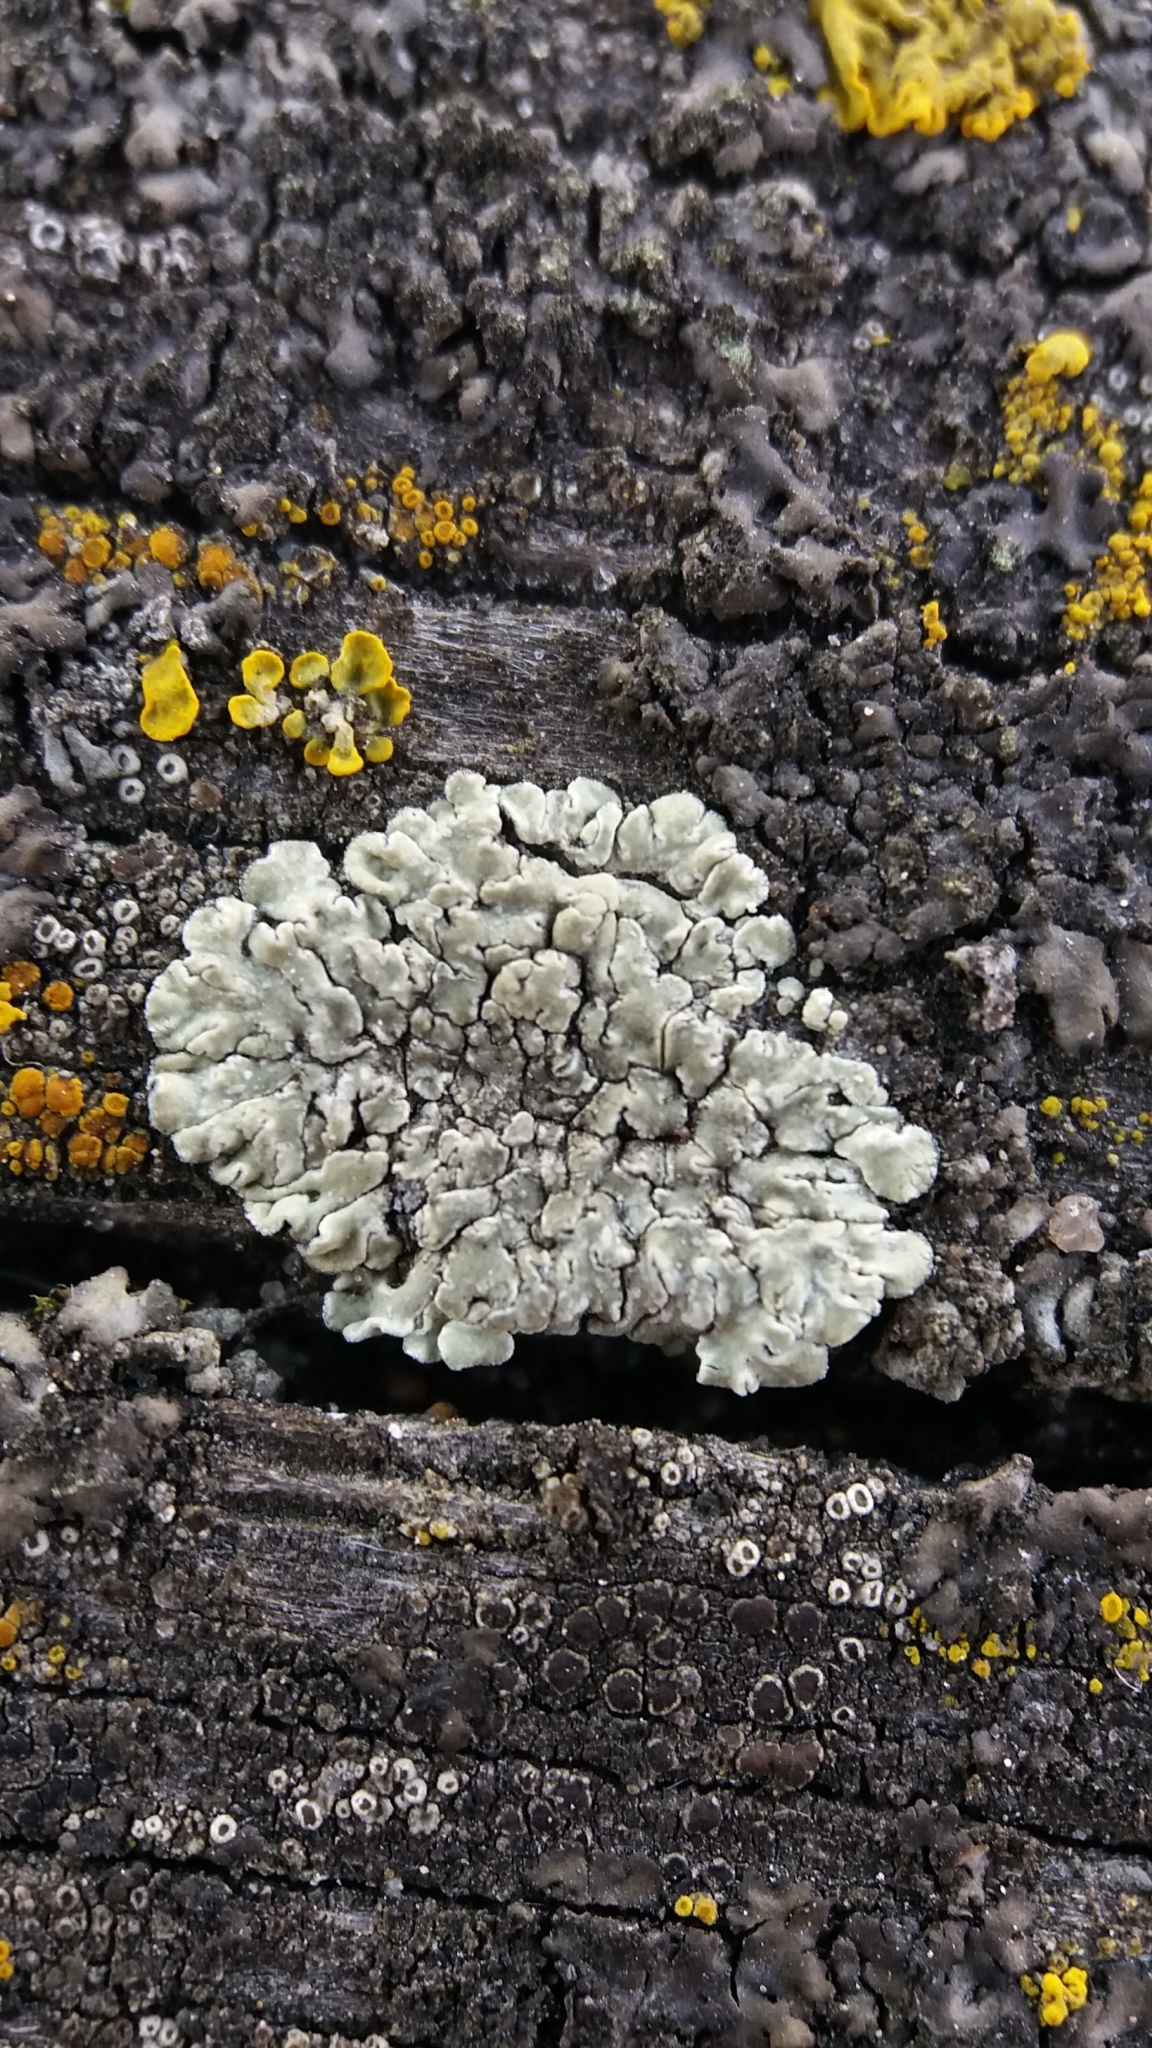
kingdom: Fungi
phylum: Ascomycota
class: Lecanoromycetes
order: Lecanorales
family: Lecanoraceae
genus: Protoparmeliopsis
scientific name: Protoparmeliopsis muralis
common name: Stonewall rim lichen
